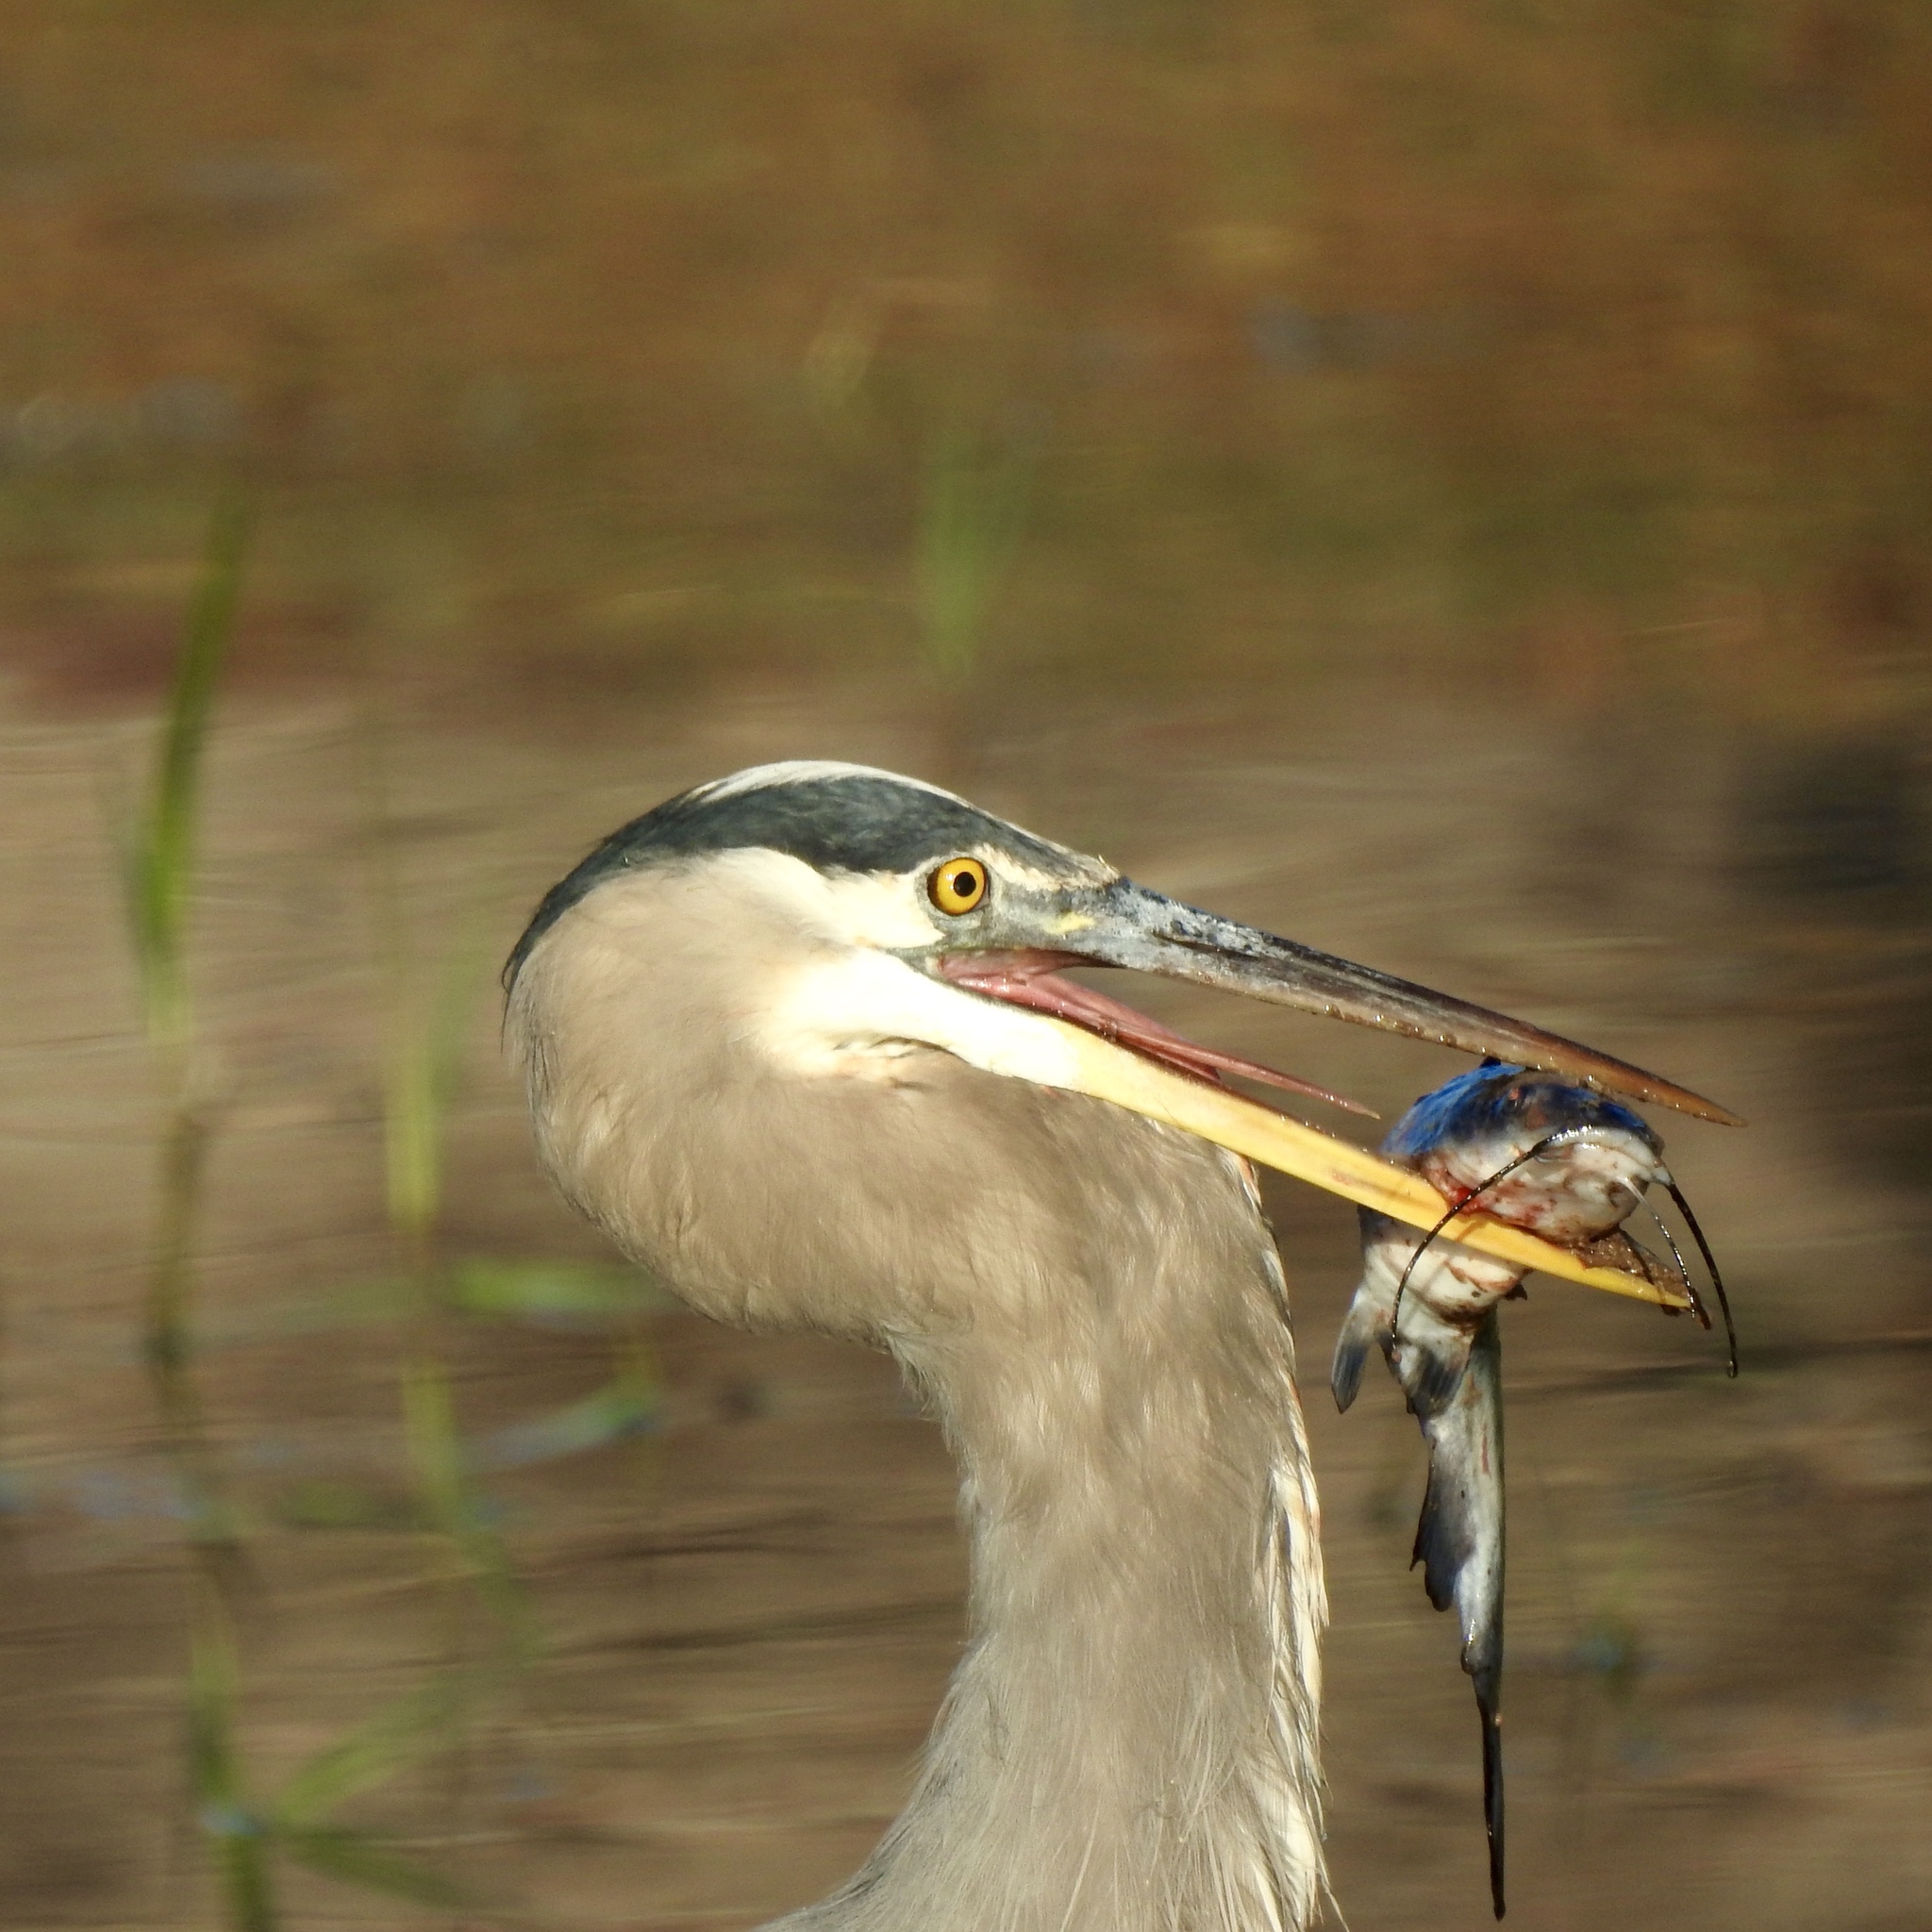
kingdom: Animalia
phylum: Chordata
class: Aves
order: Pelecaniformes
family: Ardeidae
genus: Ardea
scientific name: Ardea herodias
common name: Great blue heron
